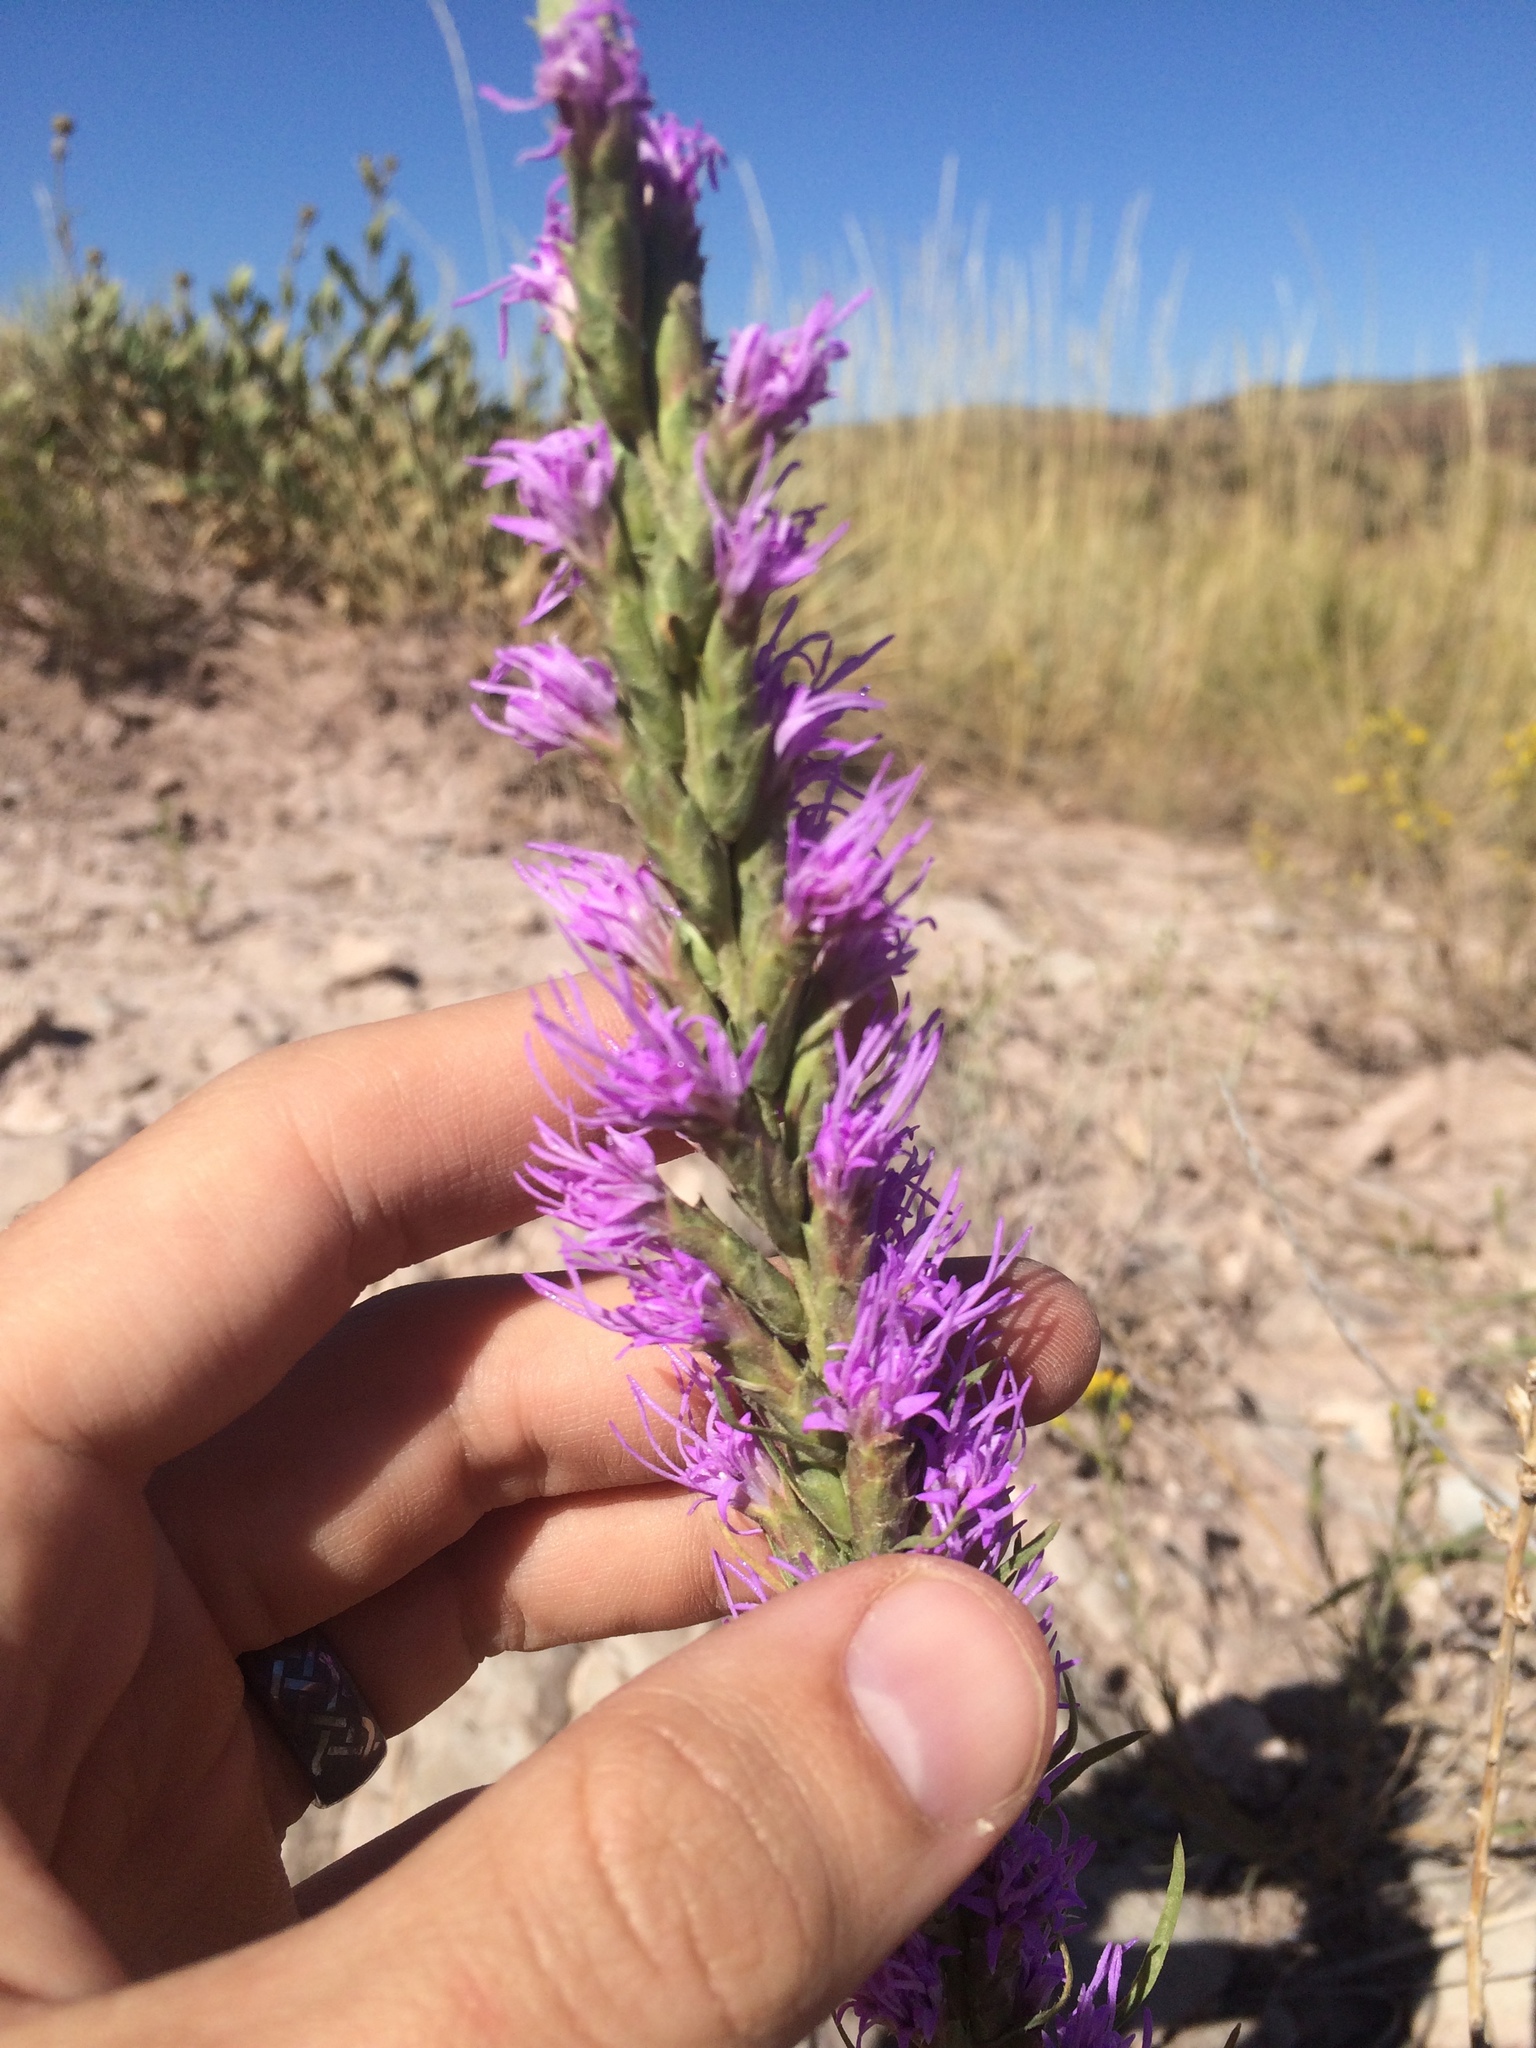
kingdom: Plantae
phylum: Tracheophyta
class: Magnoliopsida
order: Asterales
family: Asteraceae
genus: Liatris
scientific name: Liatris punctata
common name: Dotted gayfeather
